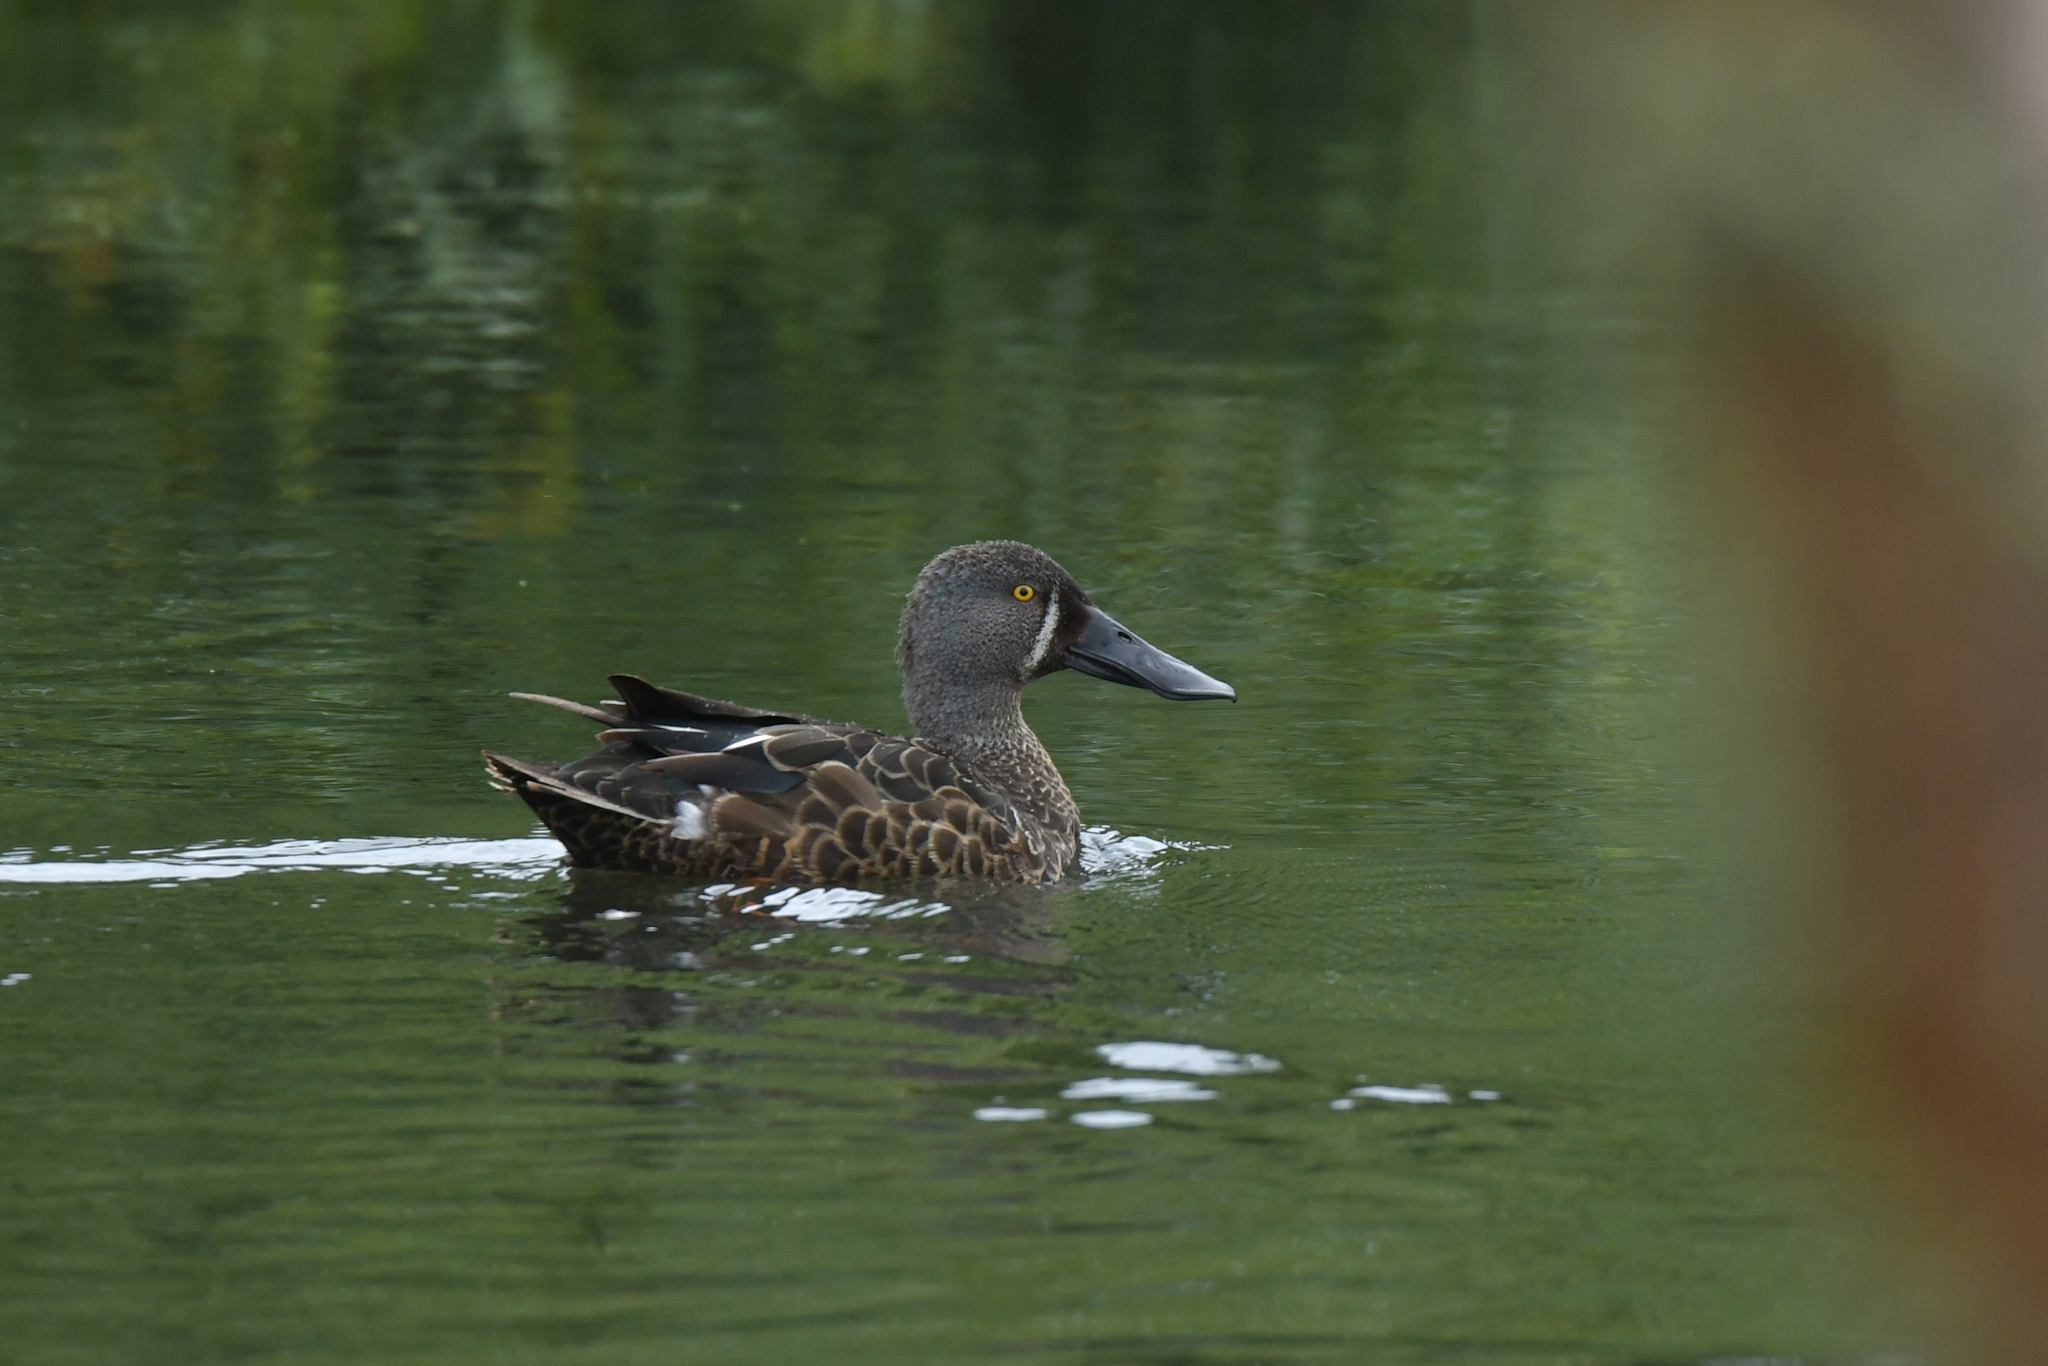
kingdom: Animalia
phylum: Chordata
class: Aves
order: Anseriformes
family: Anatidae
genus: Spatula
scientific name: Spatula rhynchotis
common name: Australian shoveler
